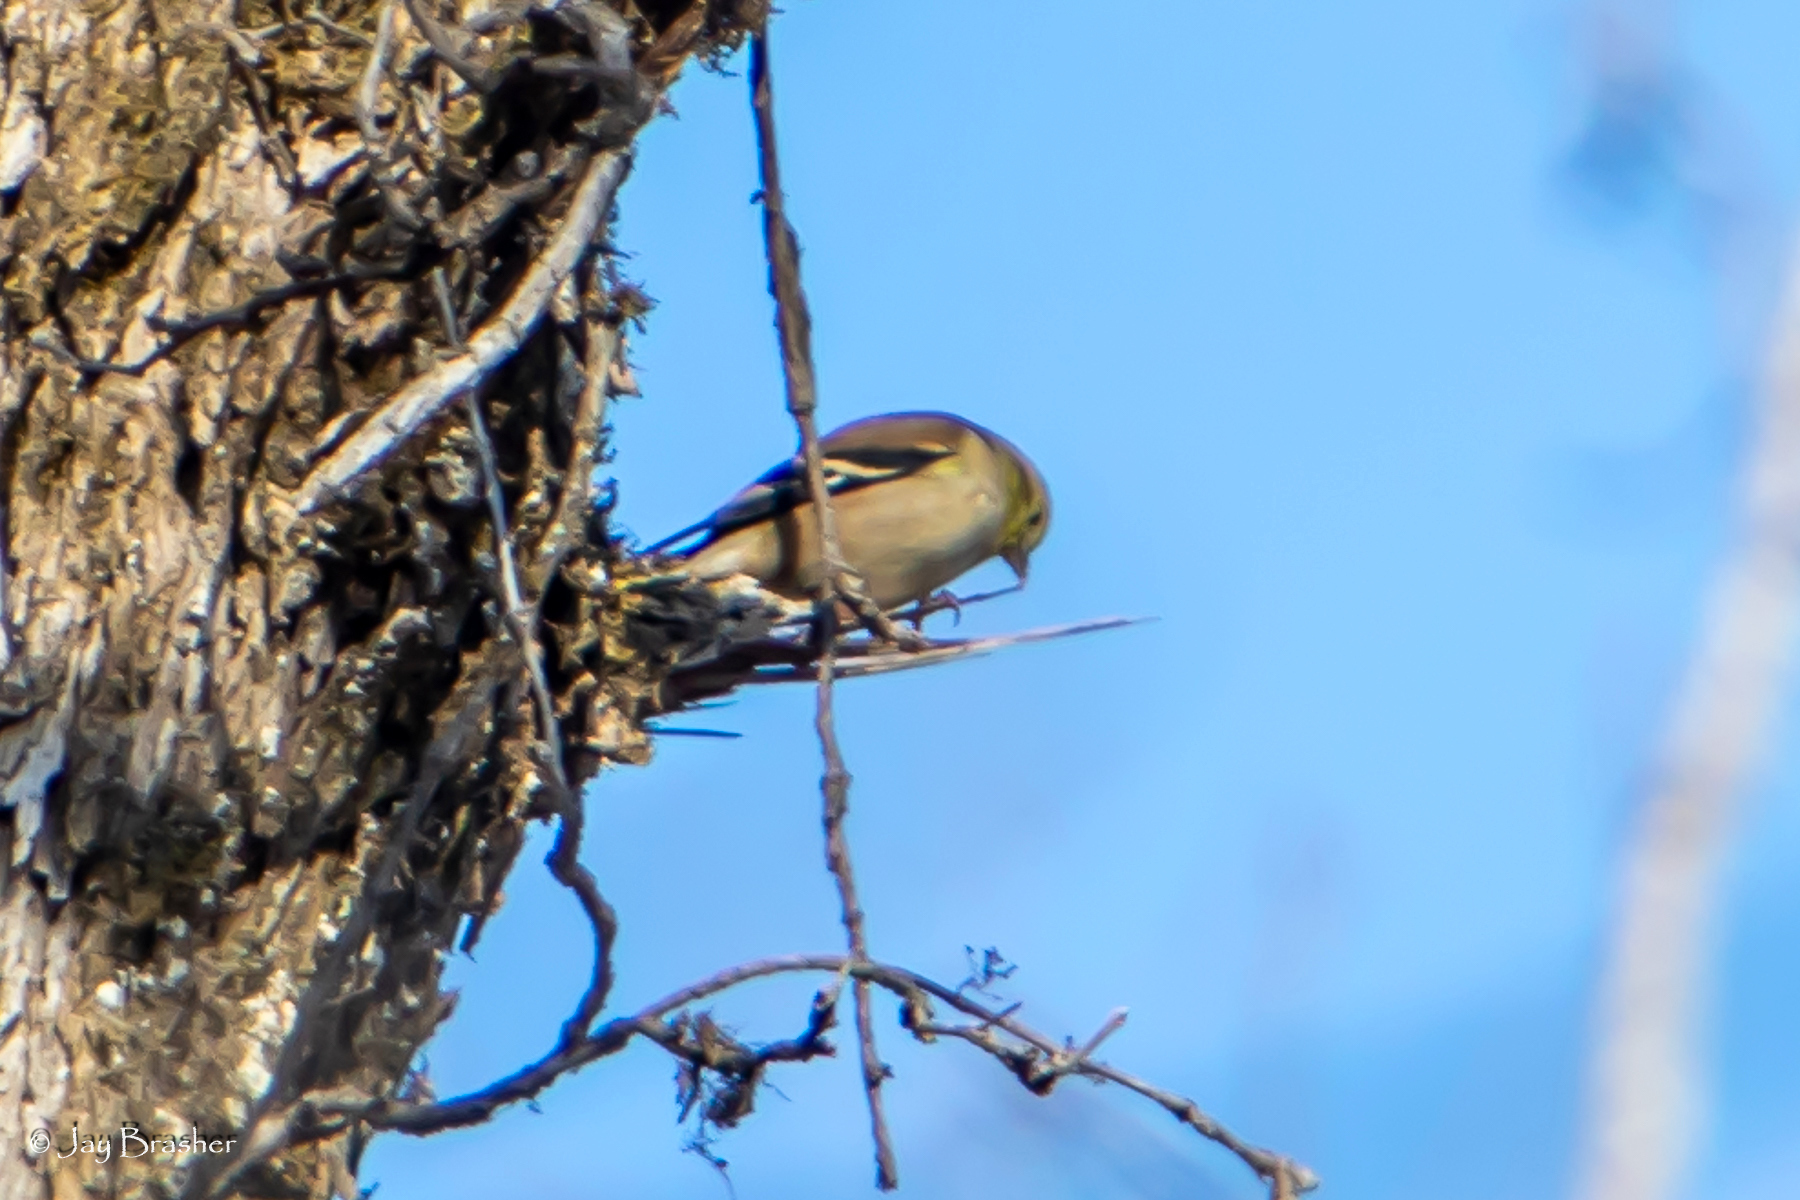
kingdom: Animalia
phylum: Chordata
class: Aves
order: Passeriformes
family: Fringillidae
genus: Spinus
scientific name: Spinus tristis
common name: American goldfinch
